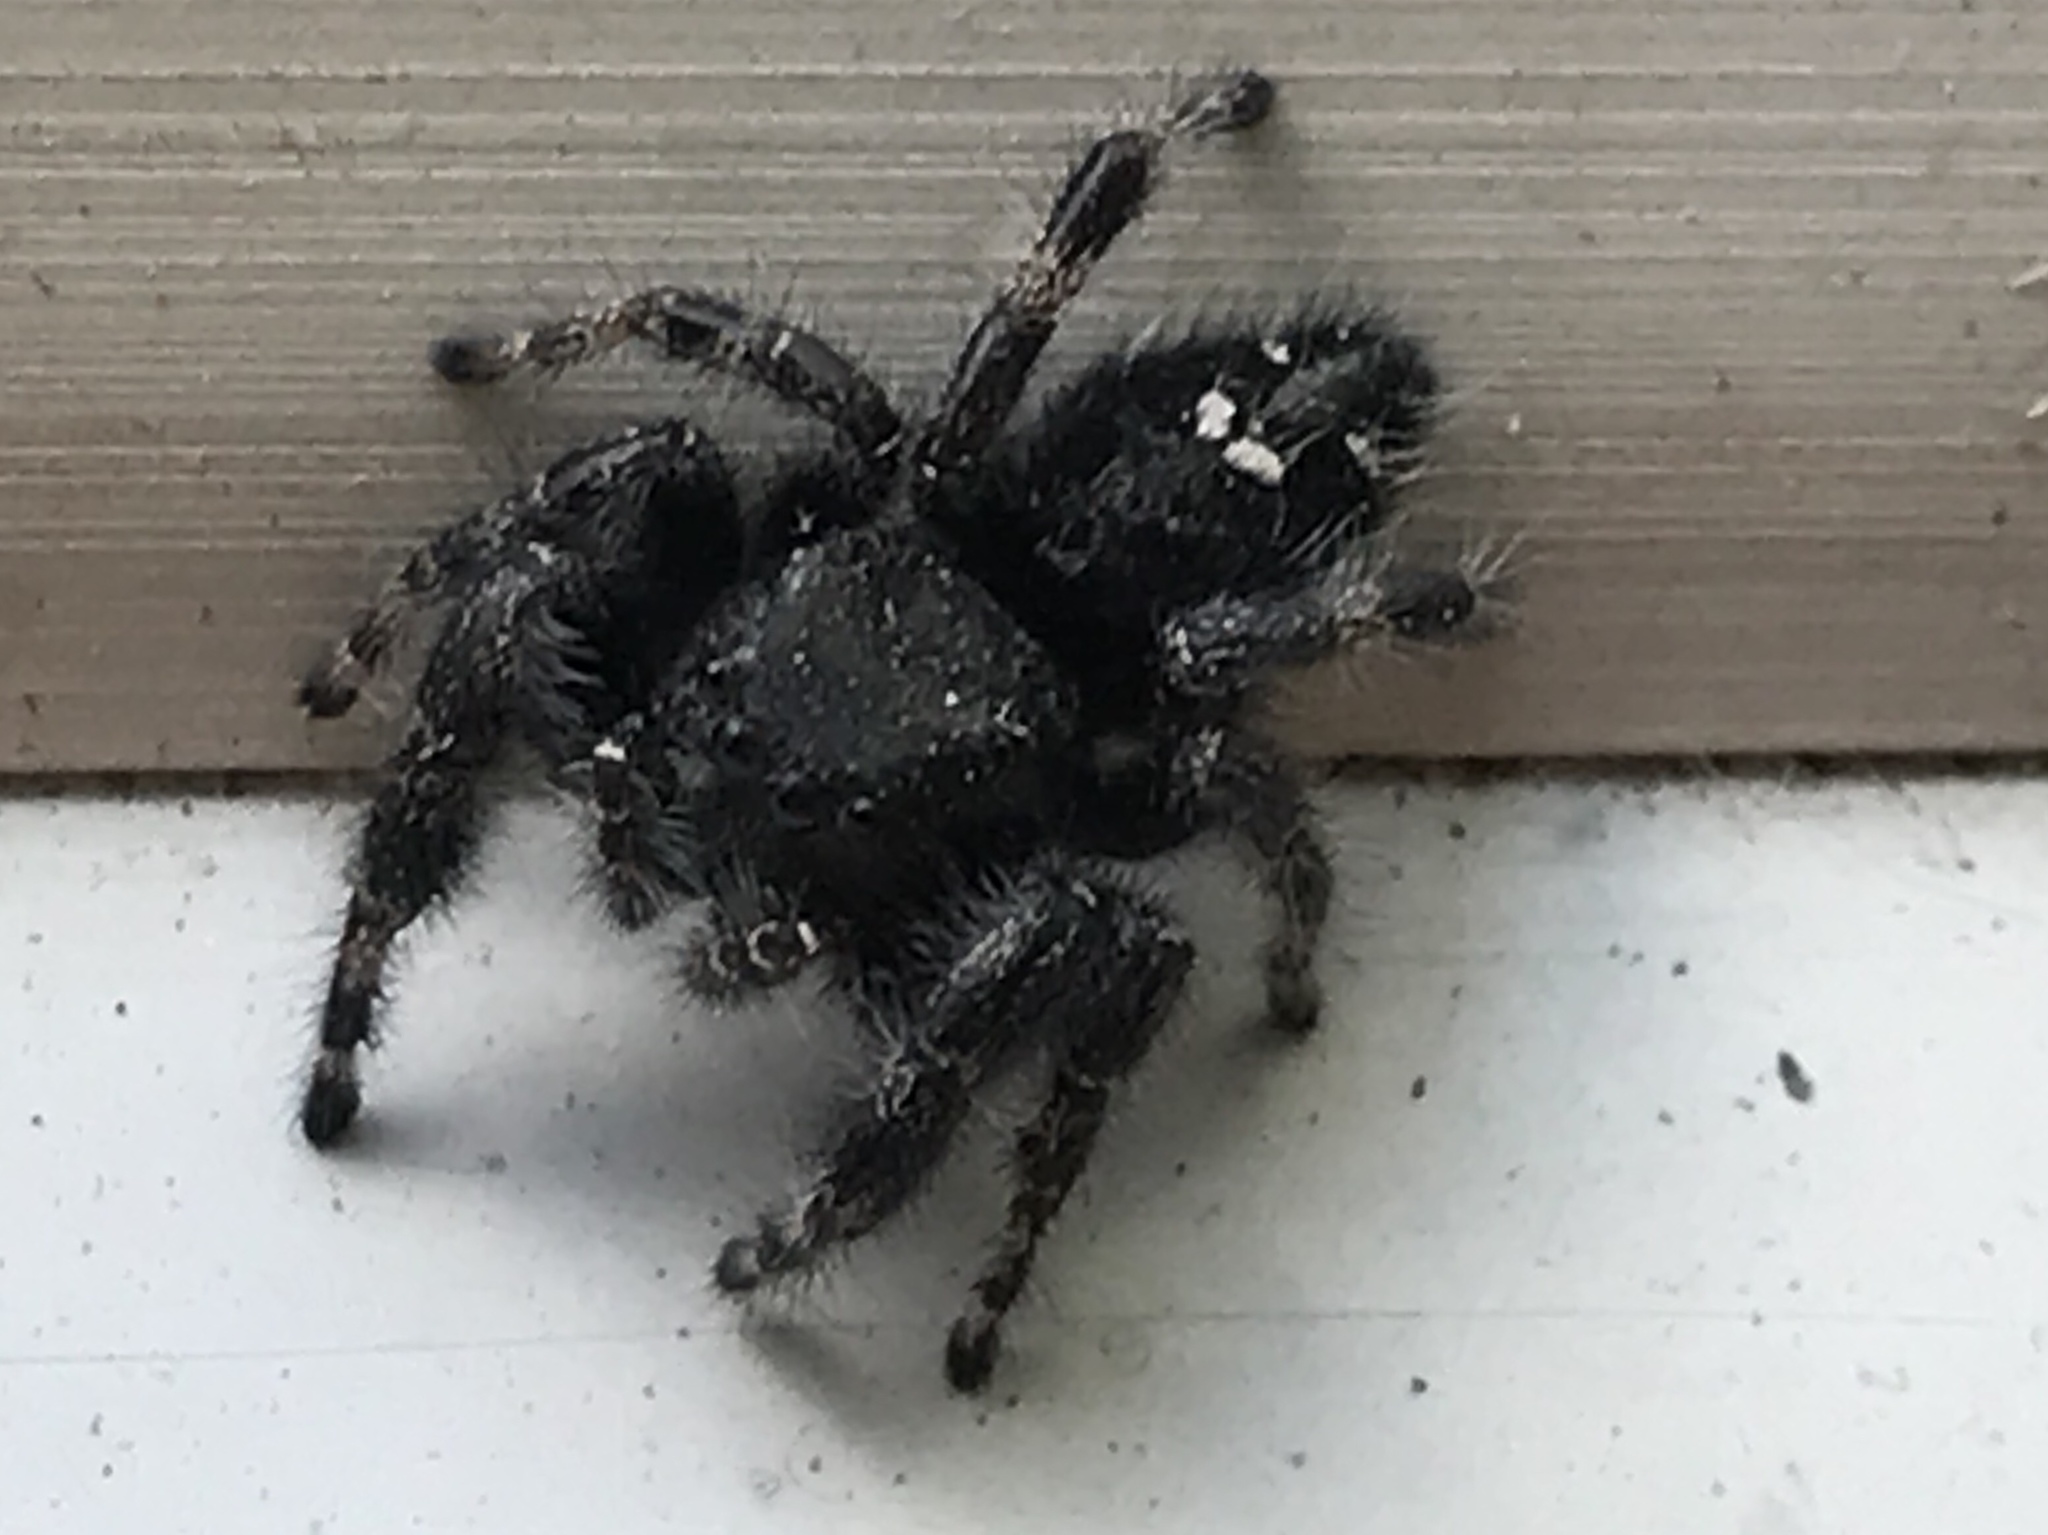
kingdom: Animalia
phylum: Arthropoda
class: Arachnida
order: Araneae
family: Salticidae
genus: Phidippus
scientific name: Phidippus audax
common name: Bold jumper
